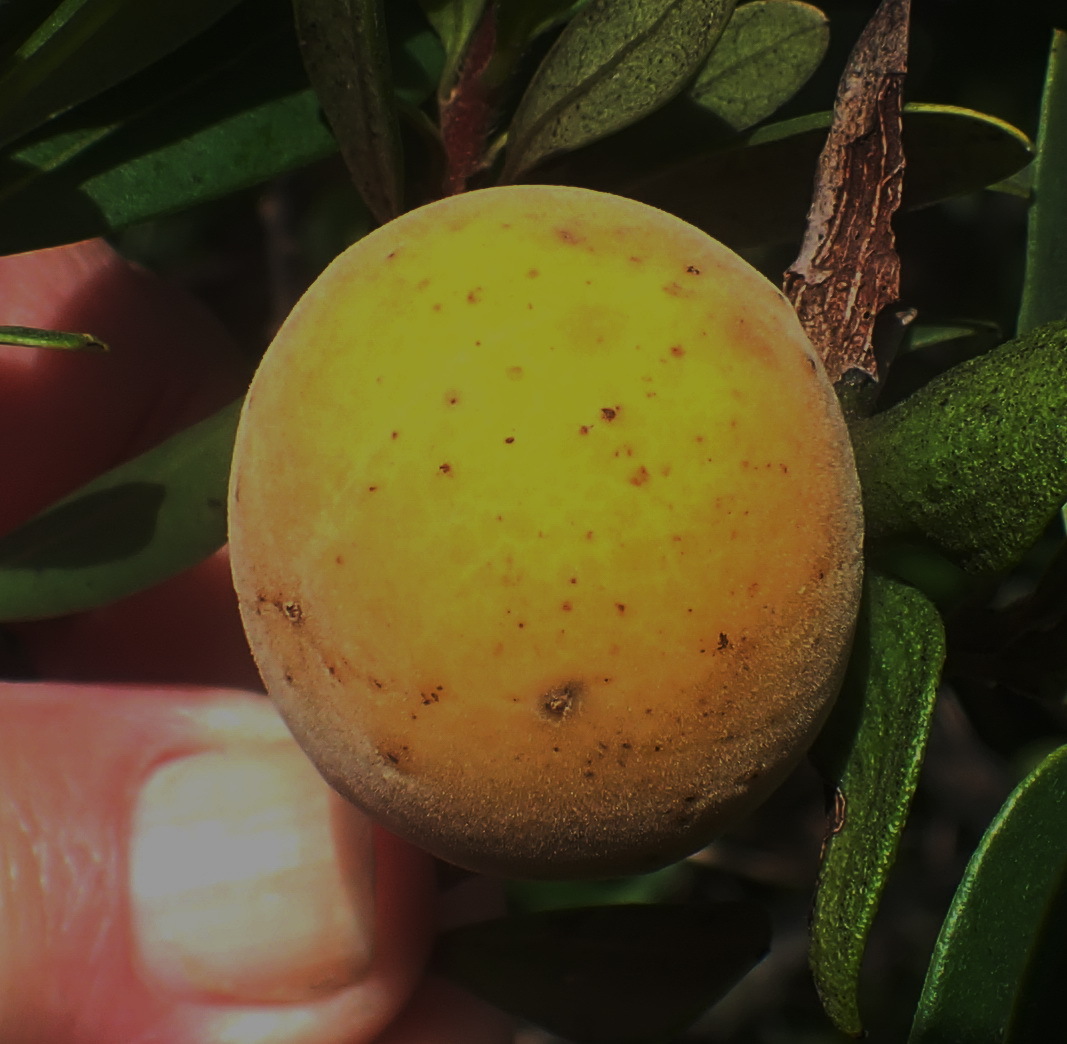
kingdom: Plantae
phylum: Tracheophyta
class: Magnoliopsida
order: Ericales
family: Ebenaceae
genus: Diospyros
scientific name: Diospyros dichrophylla
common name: Common star-apple
